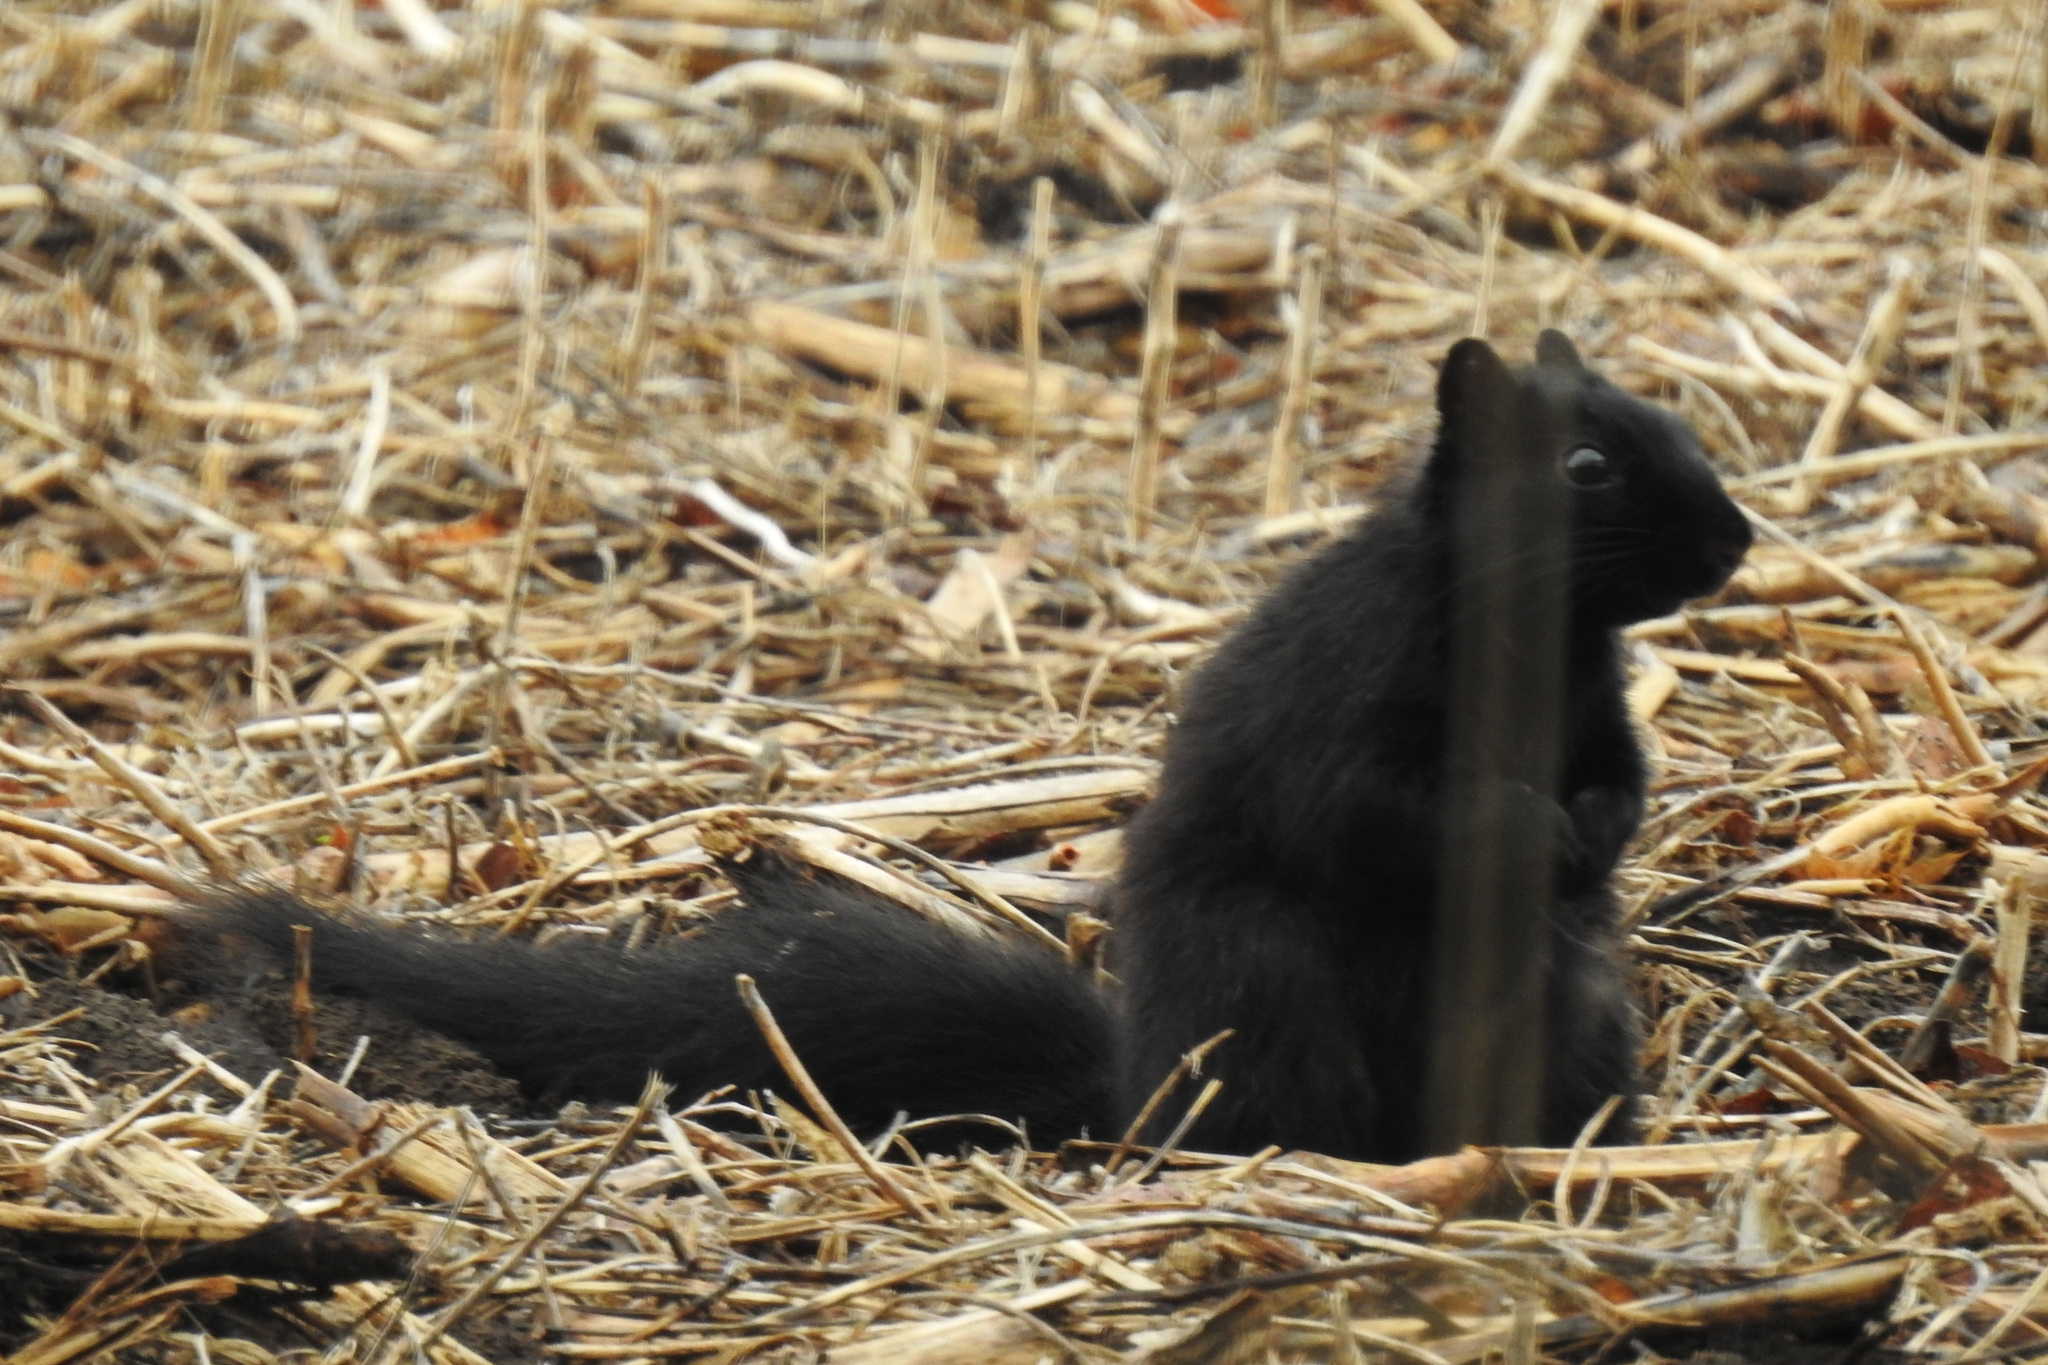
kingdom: Animalia
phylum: Chordata
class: Mammalia
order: Rodentia
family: Sciuridae
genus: Sciurus
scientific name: Sciurus niger
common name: Fox squirrel
